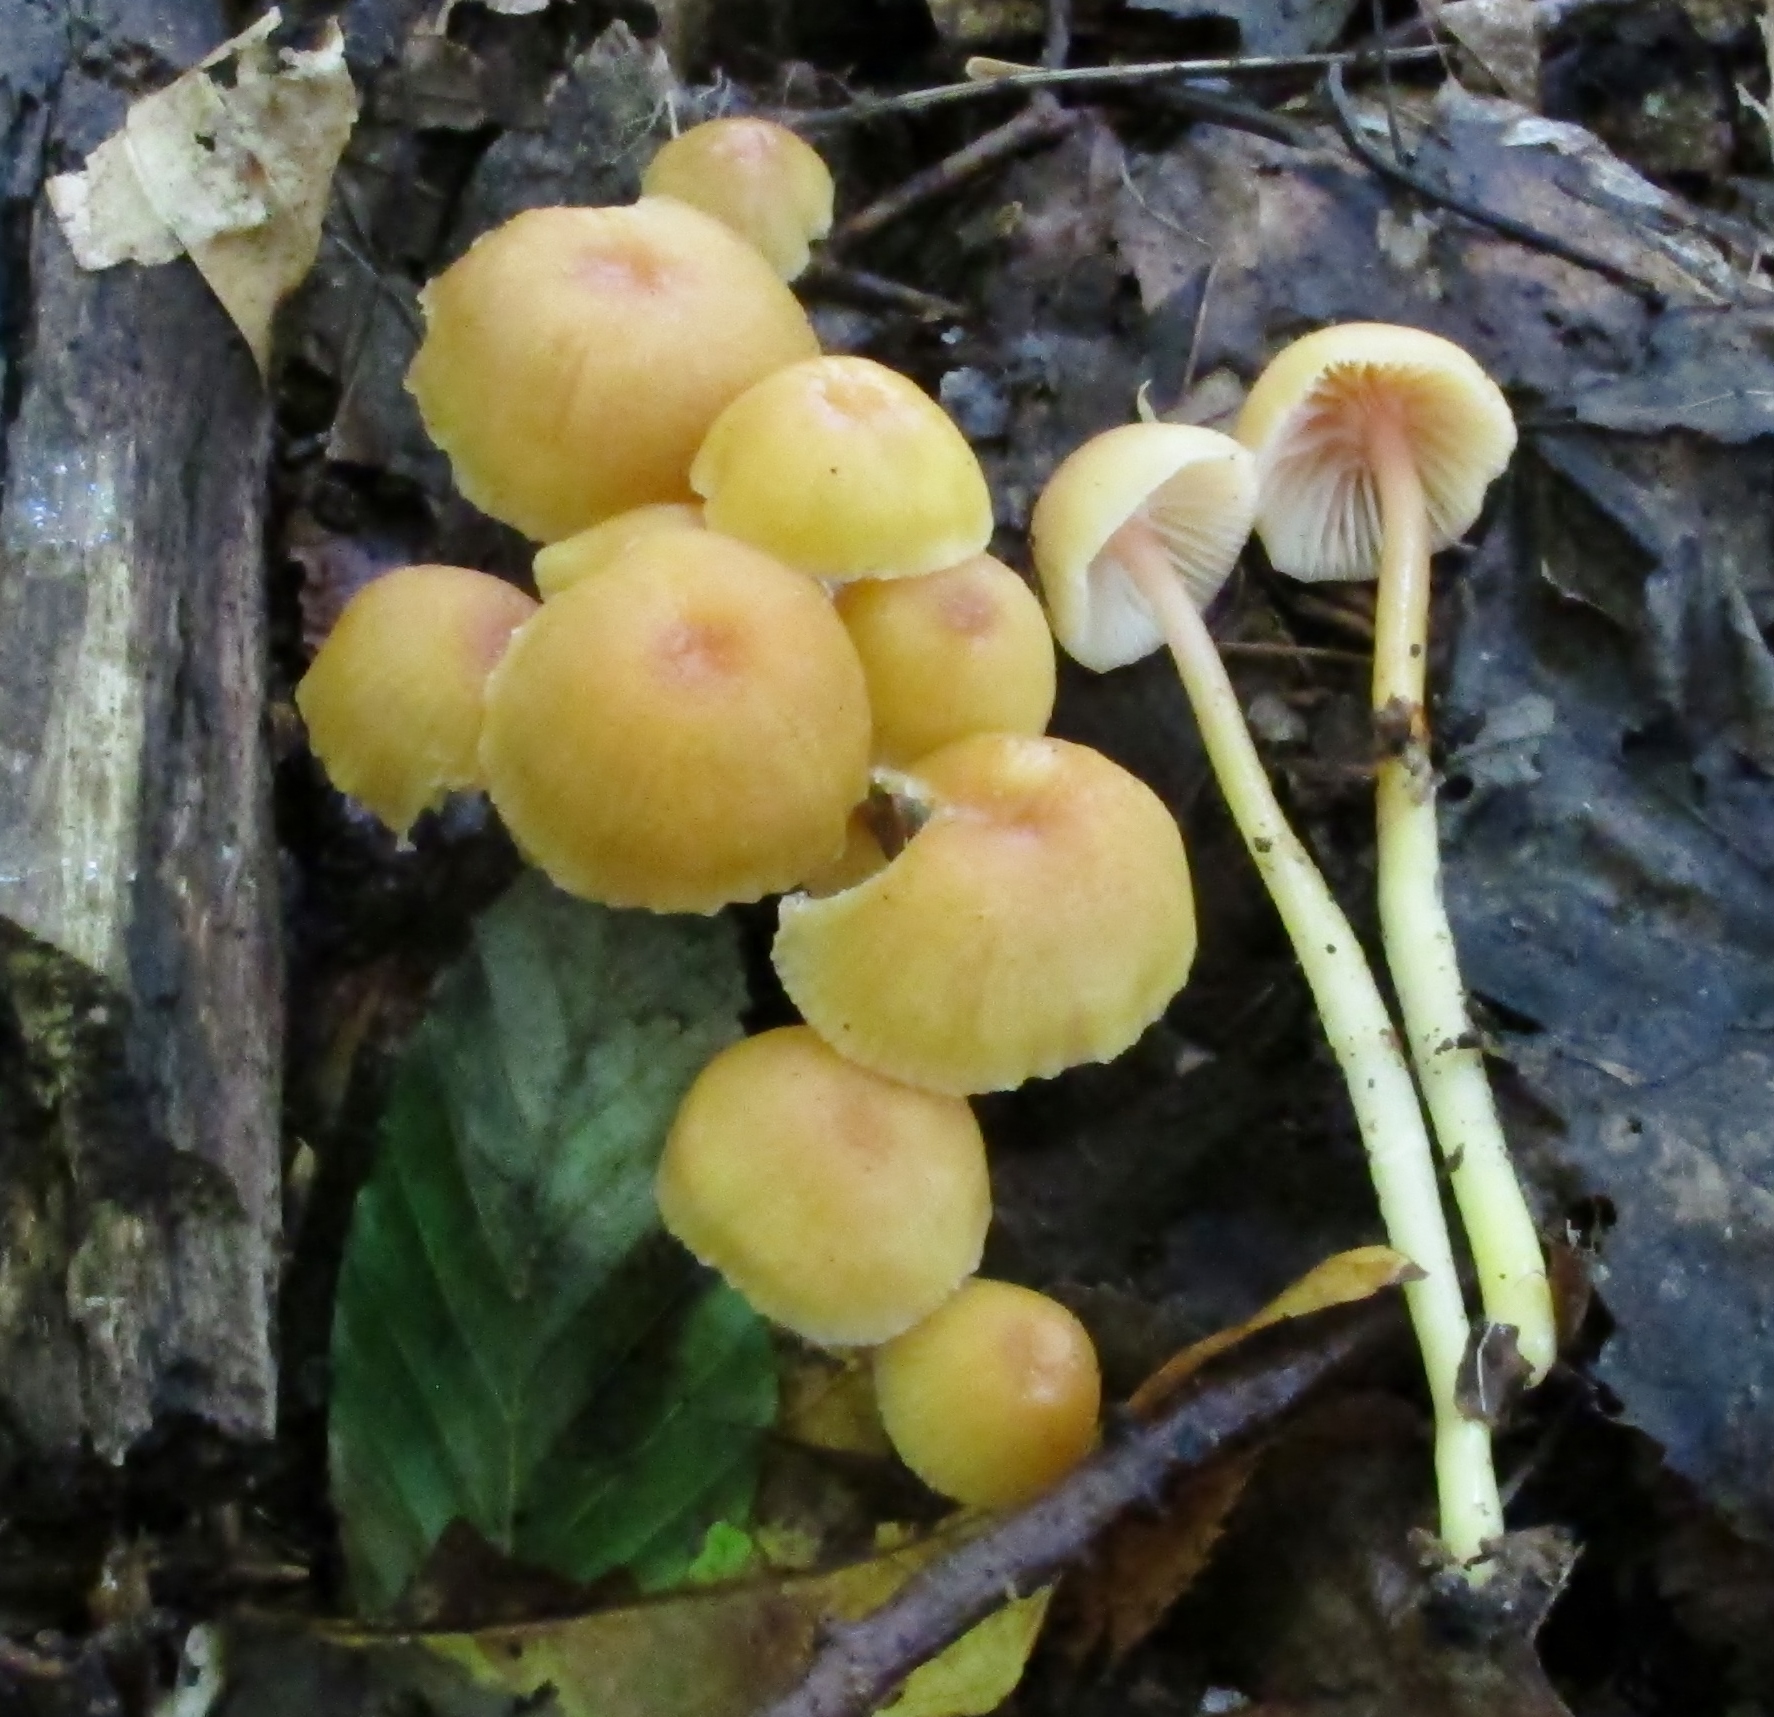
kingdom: Fungi
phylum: Basidiomycota
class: Agaricomycetes
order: Agaricales
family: Hygrophoraceae
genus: Gliophorus
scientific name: Gliophorus laetus
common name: Heath waxcap
